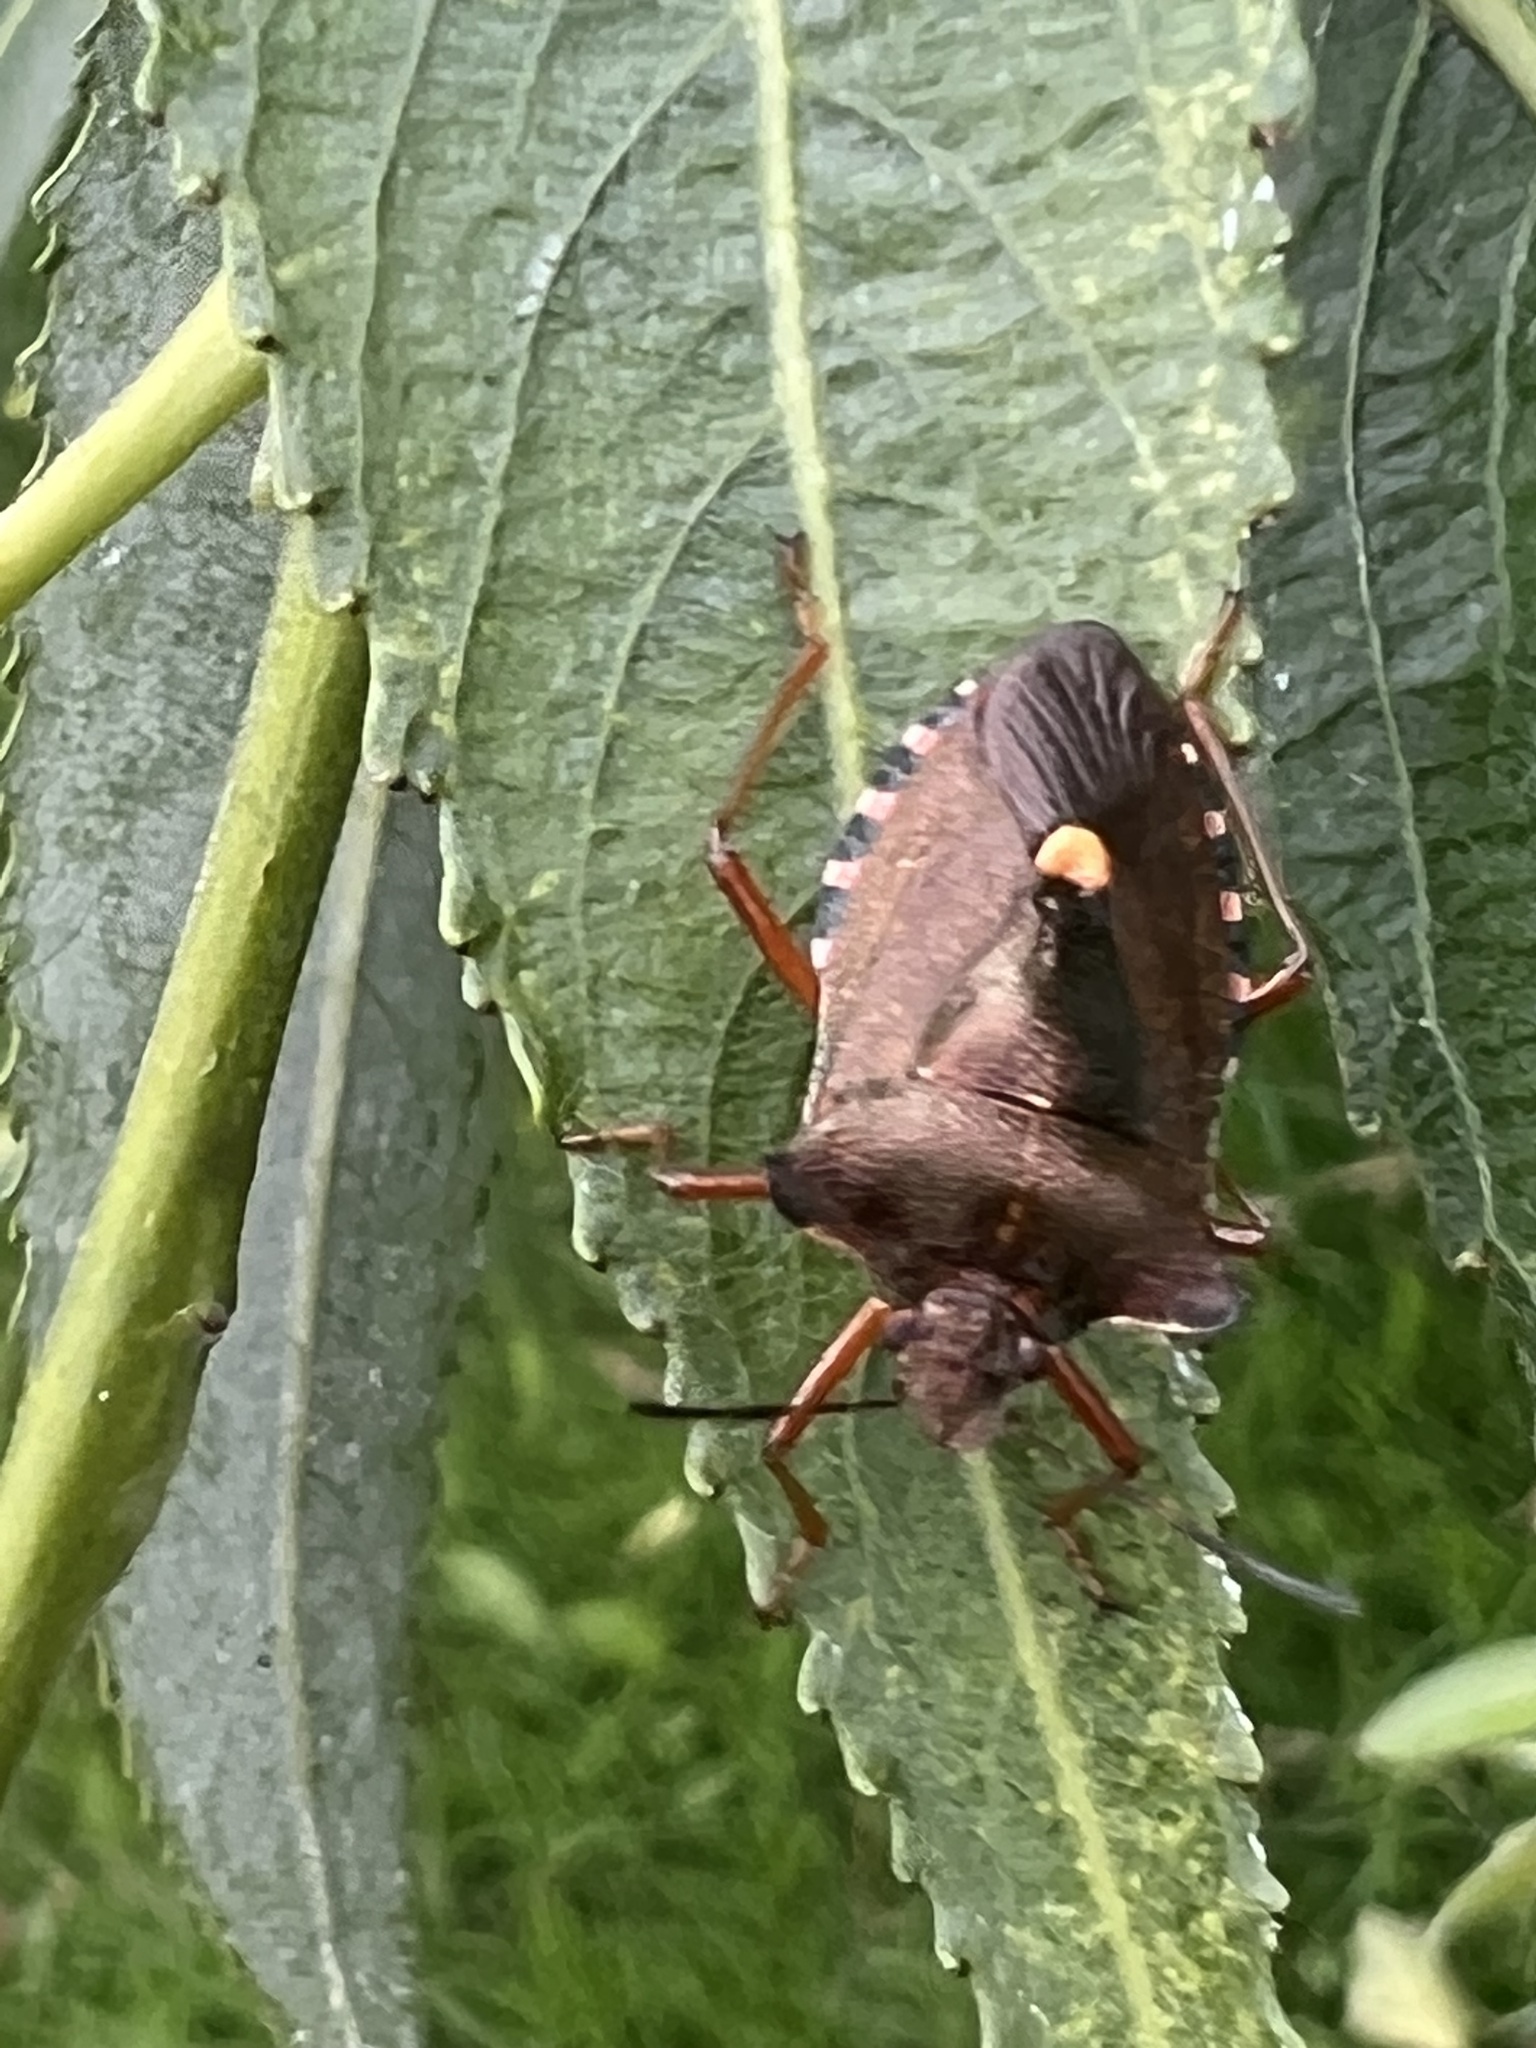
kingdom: Animalia
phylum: Arthropoda
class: Insecta
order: Hemiptera
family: Pentatomidae
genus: Pentatoma
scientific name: Pentatoma rufipes
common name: Forest bug
